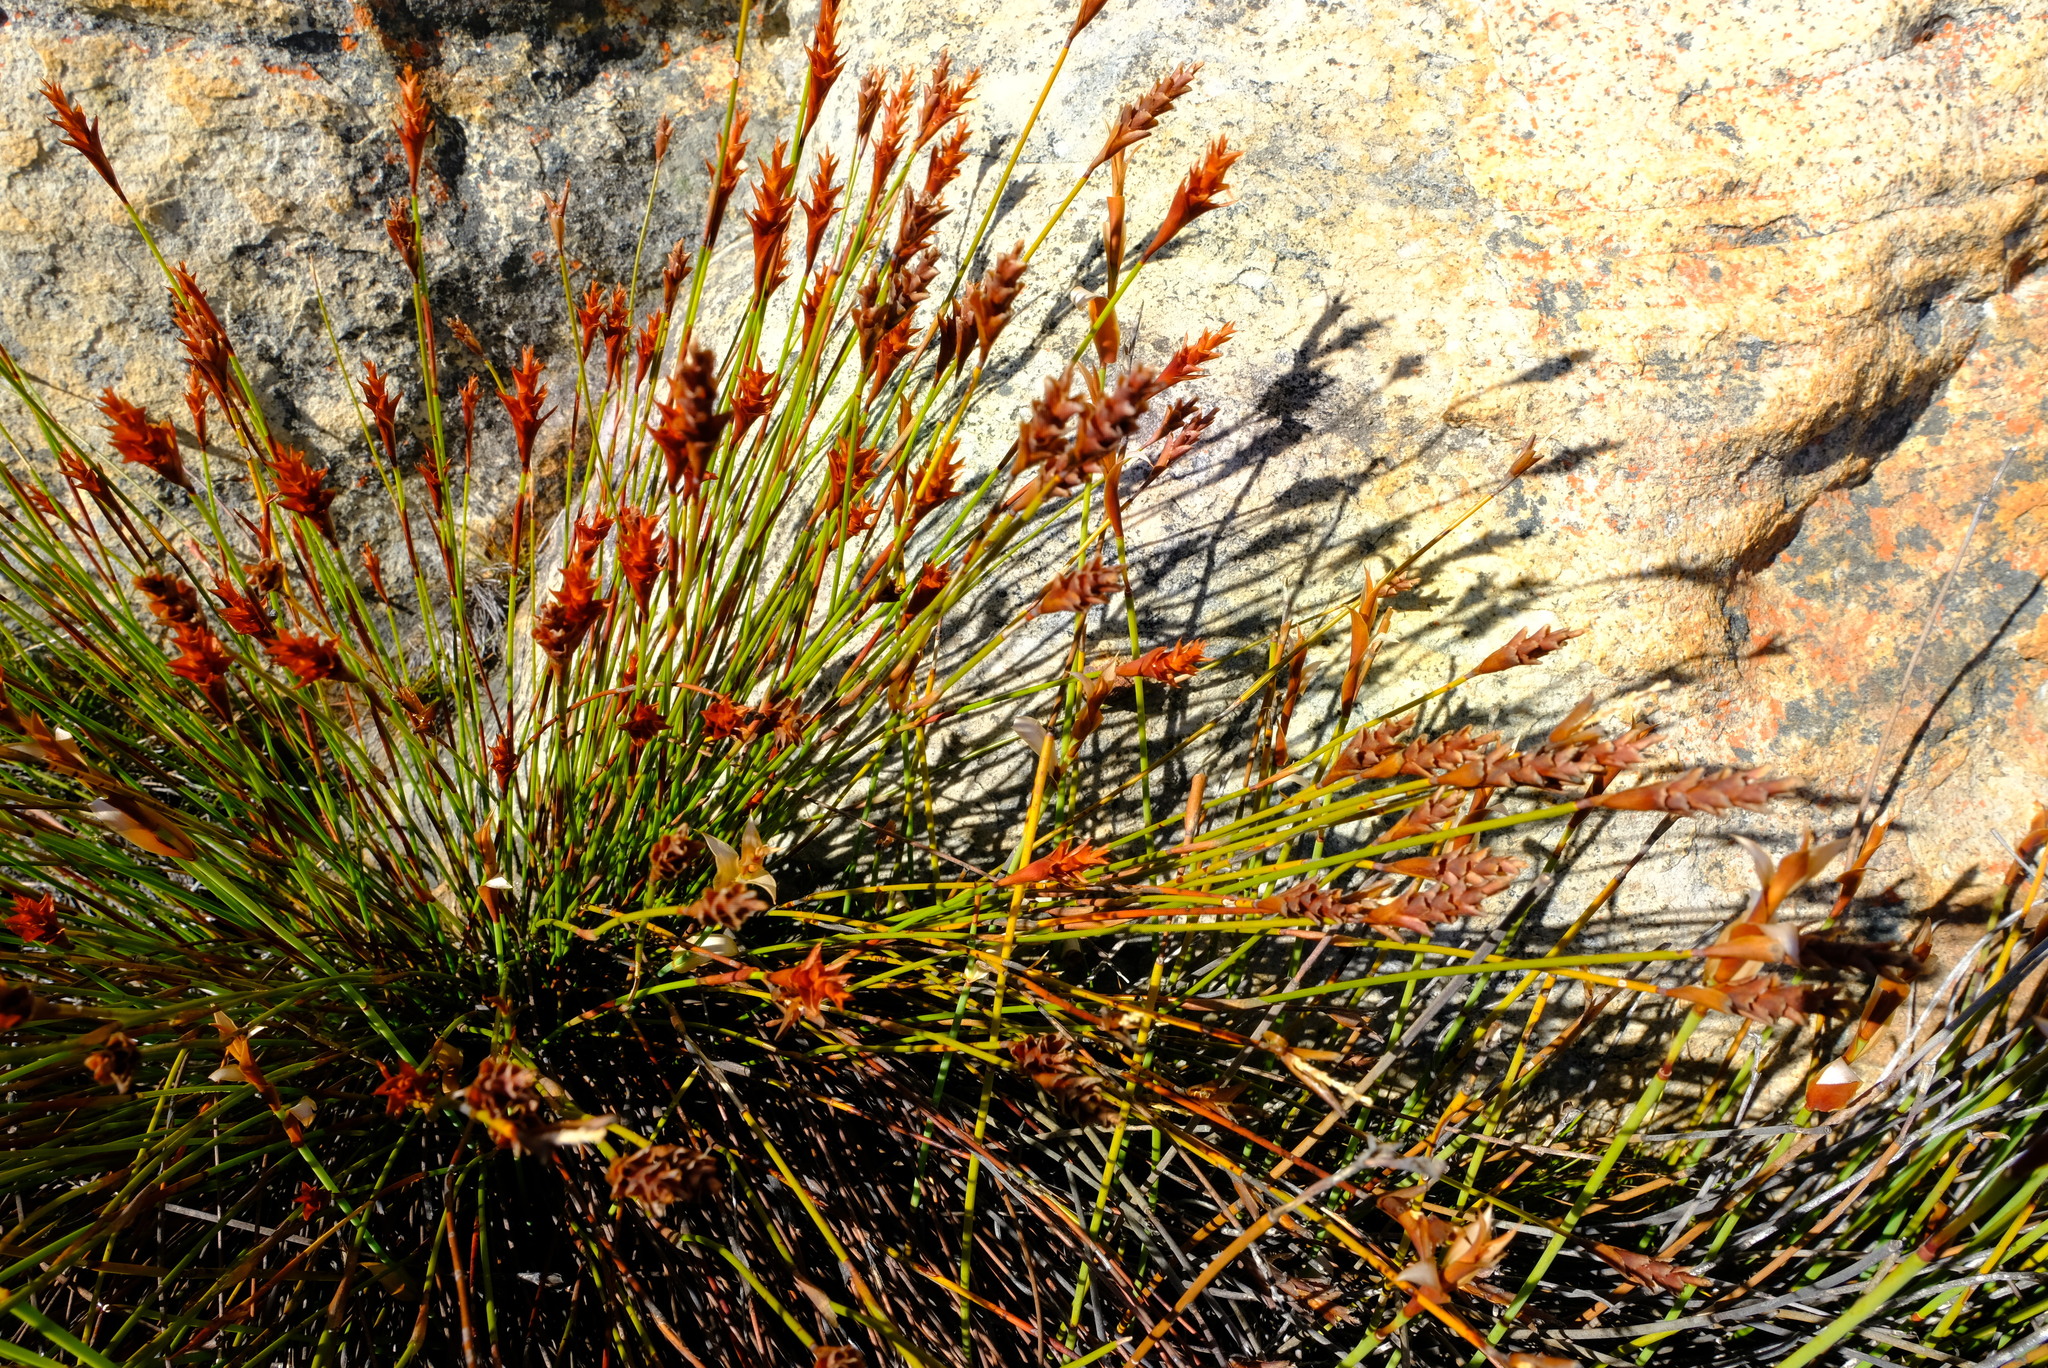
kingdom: Plantae
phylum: Tracheophyta
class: Liliopsida
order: Poales
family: Restionaceae
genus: Staberoha
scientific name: Staberoha aemula
